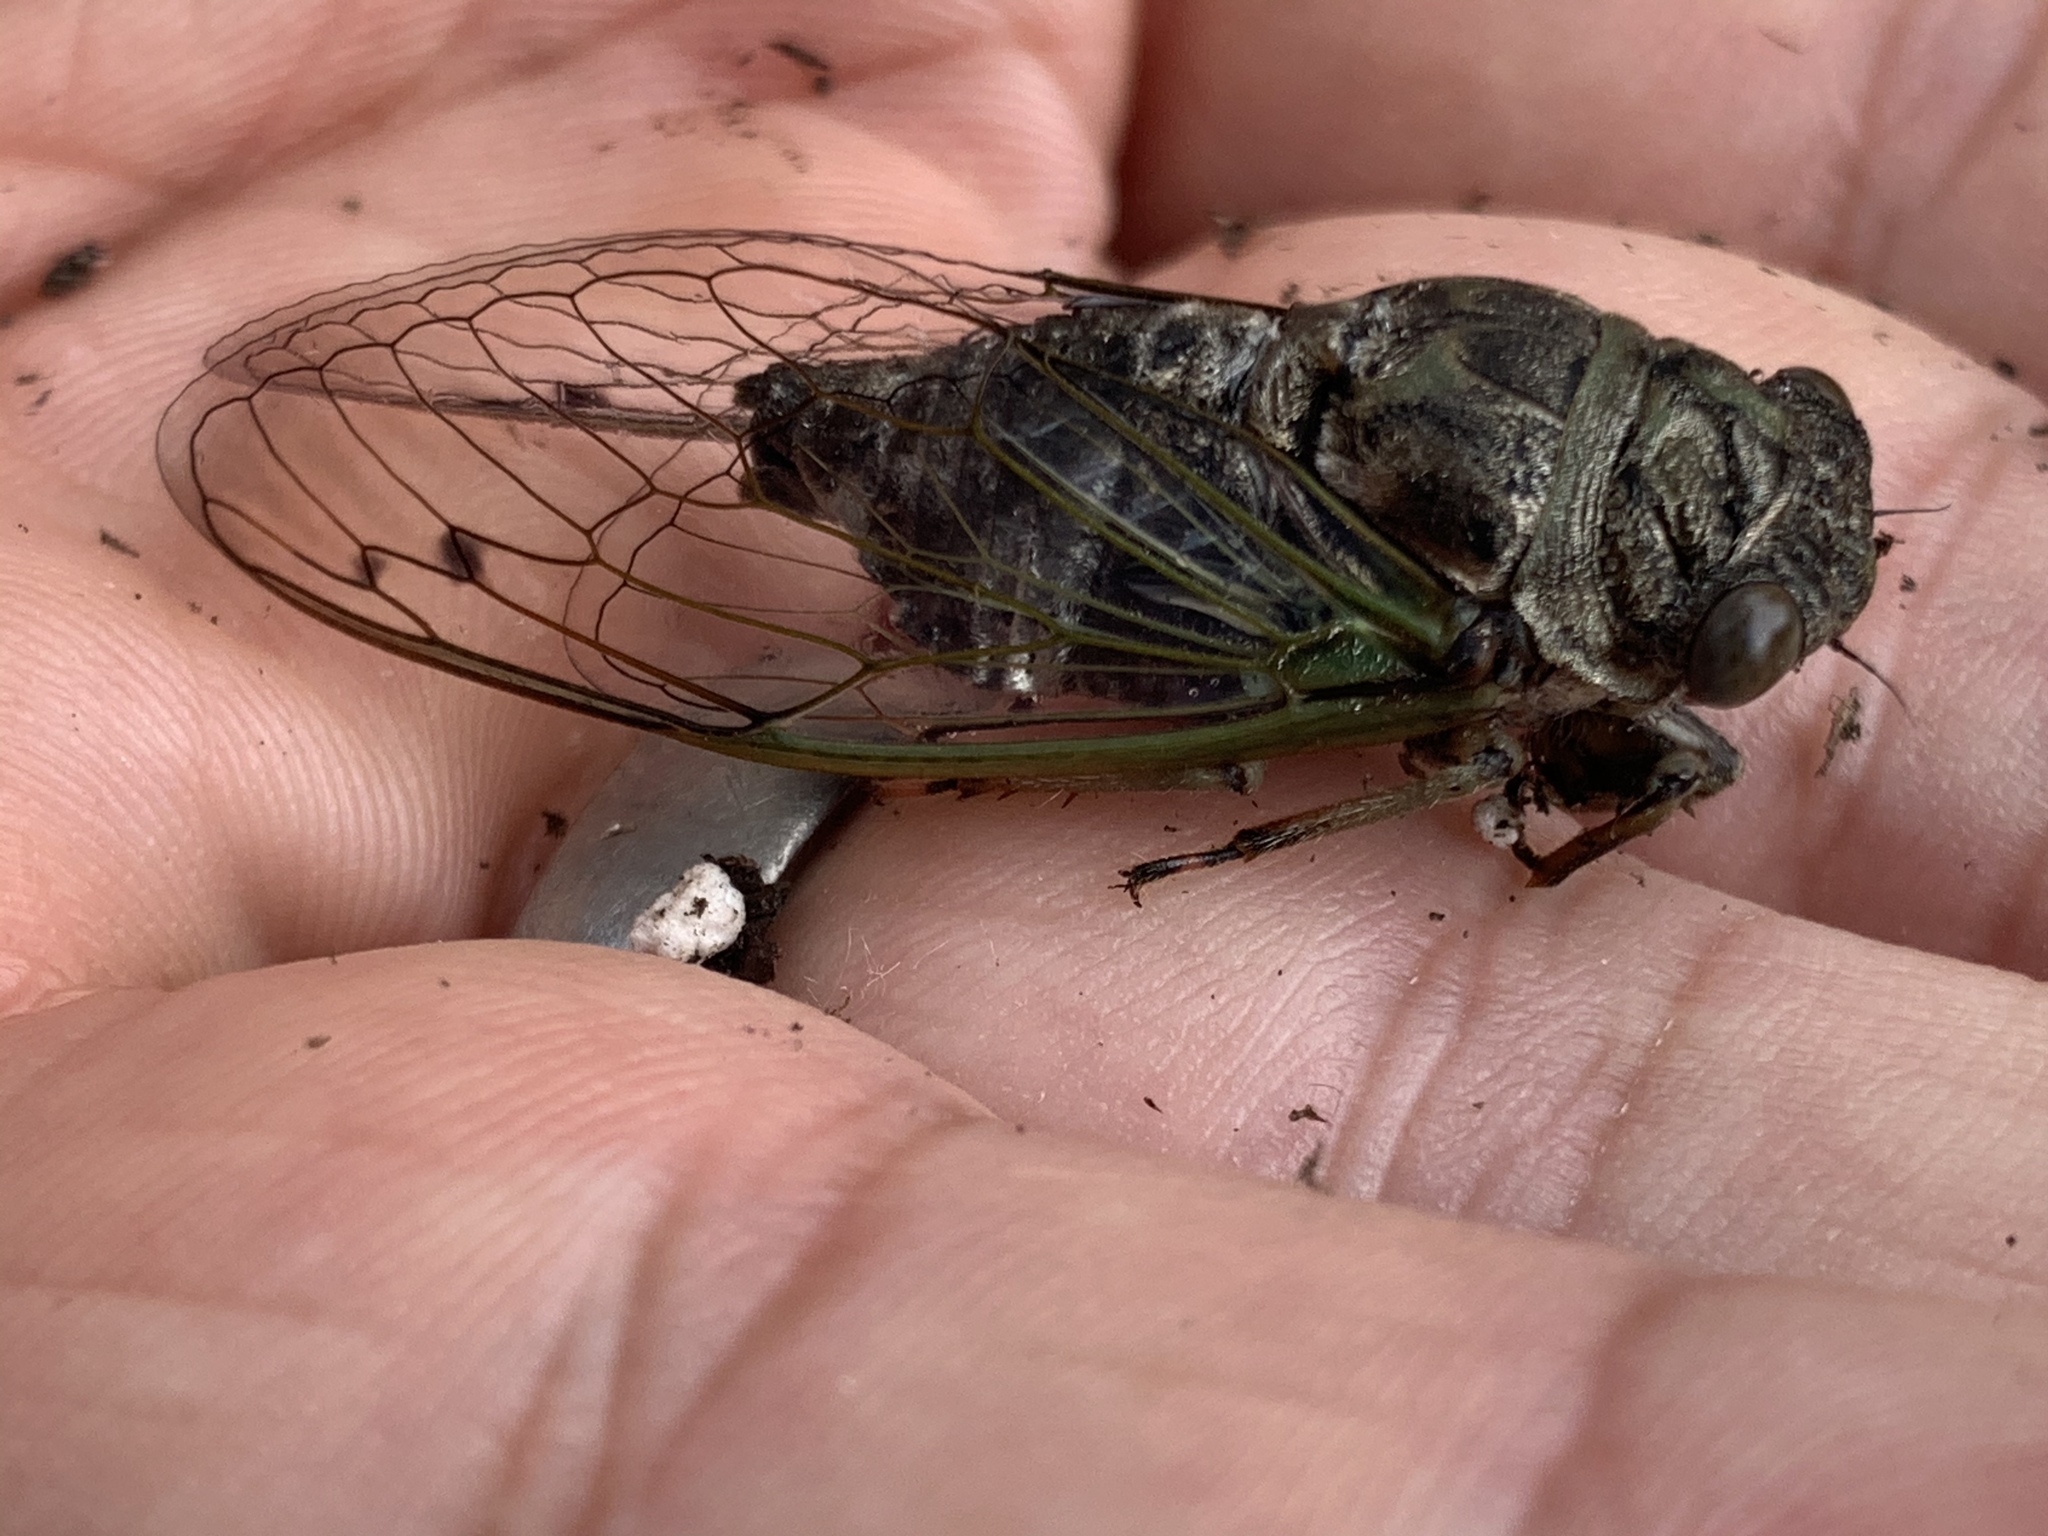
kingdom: Animalia
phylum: Arthropoda
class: Insecta
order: Hemiptera
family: Cicadidae
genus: Neotibicen
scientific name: Neotibicen canicularis
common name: God-day cicada
